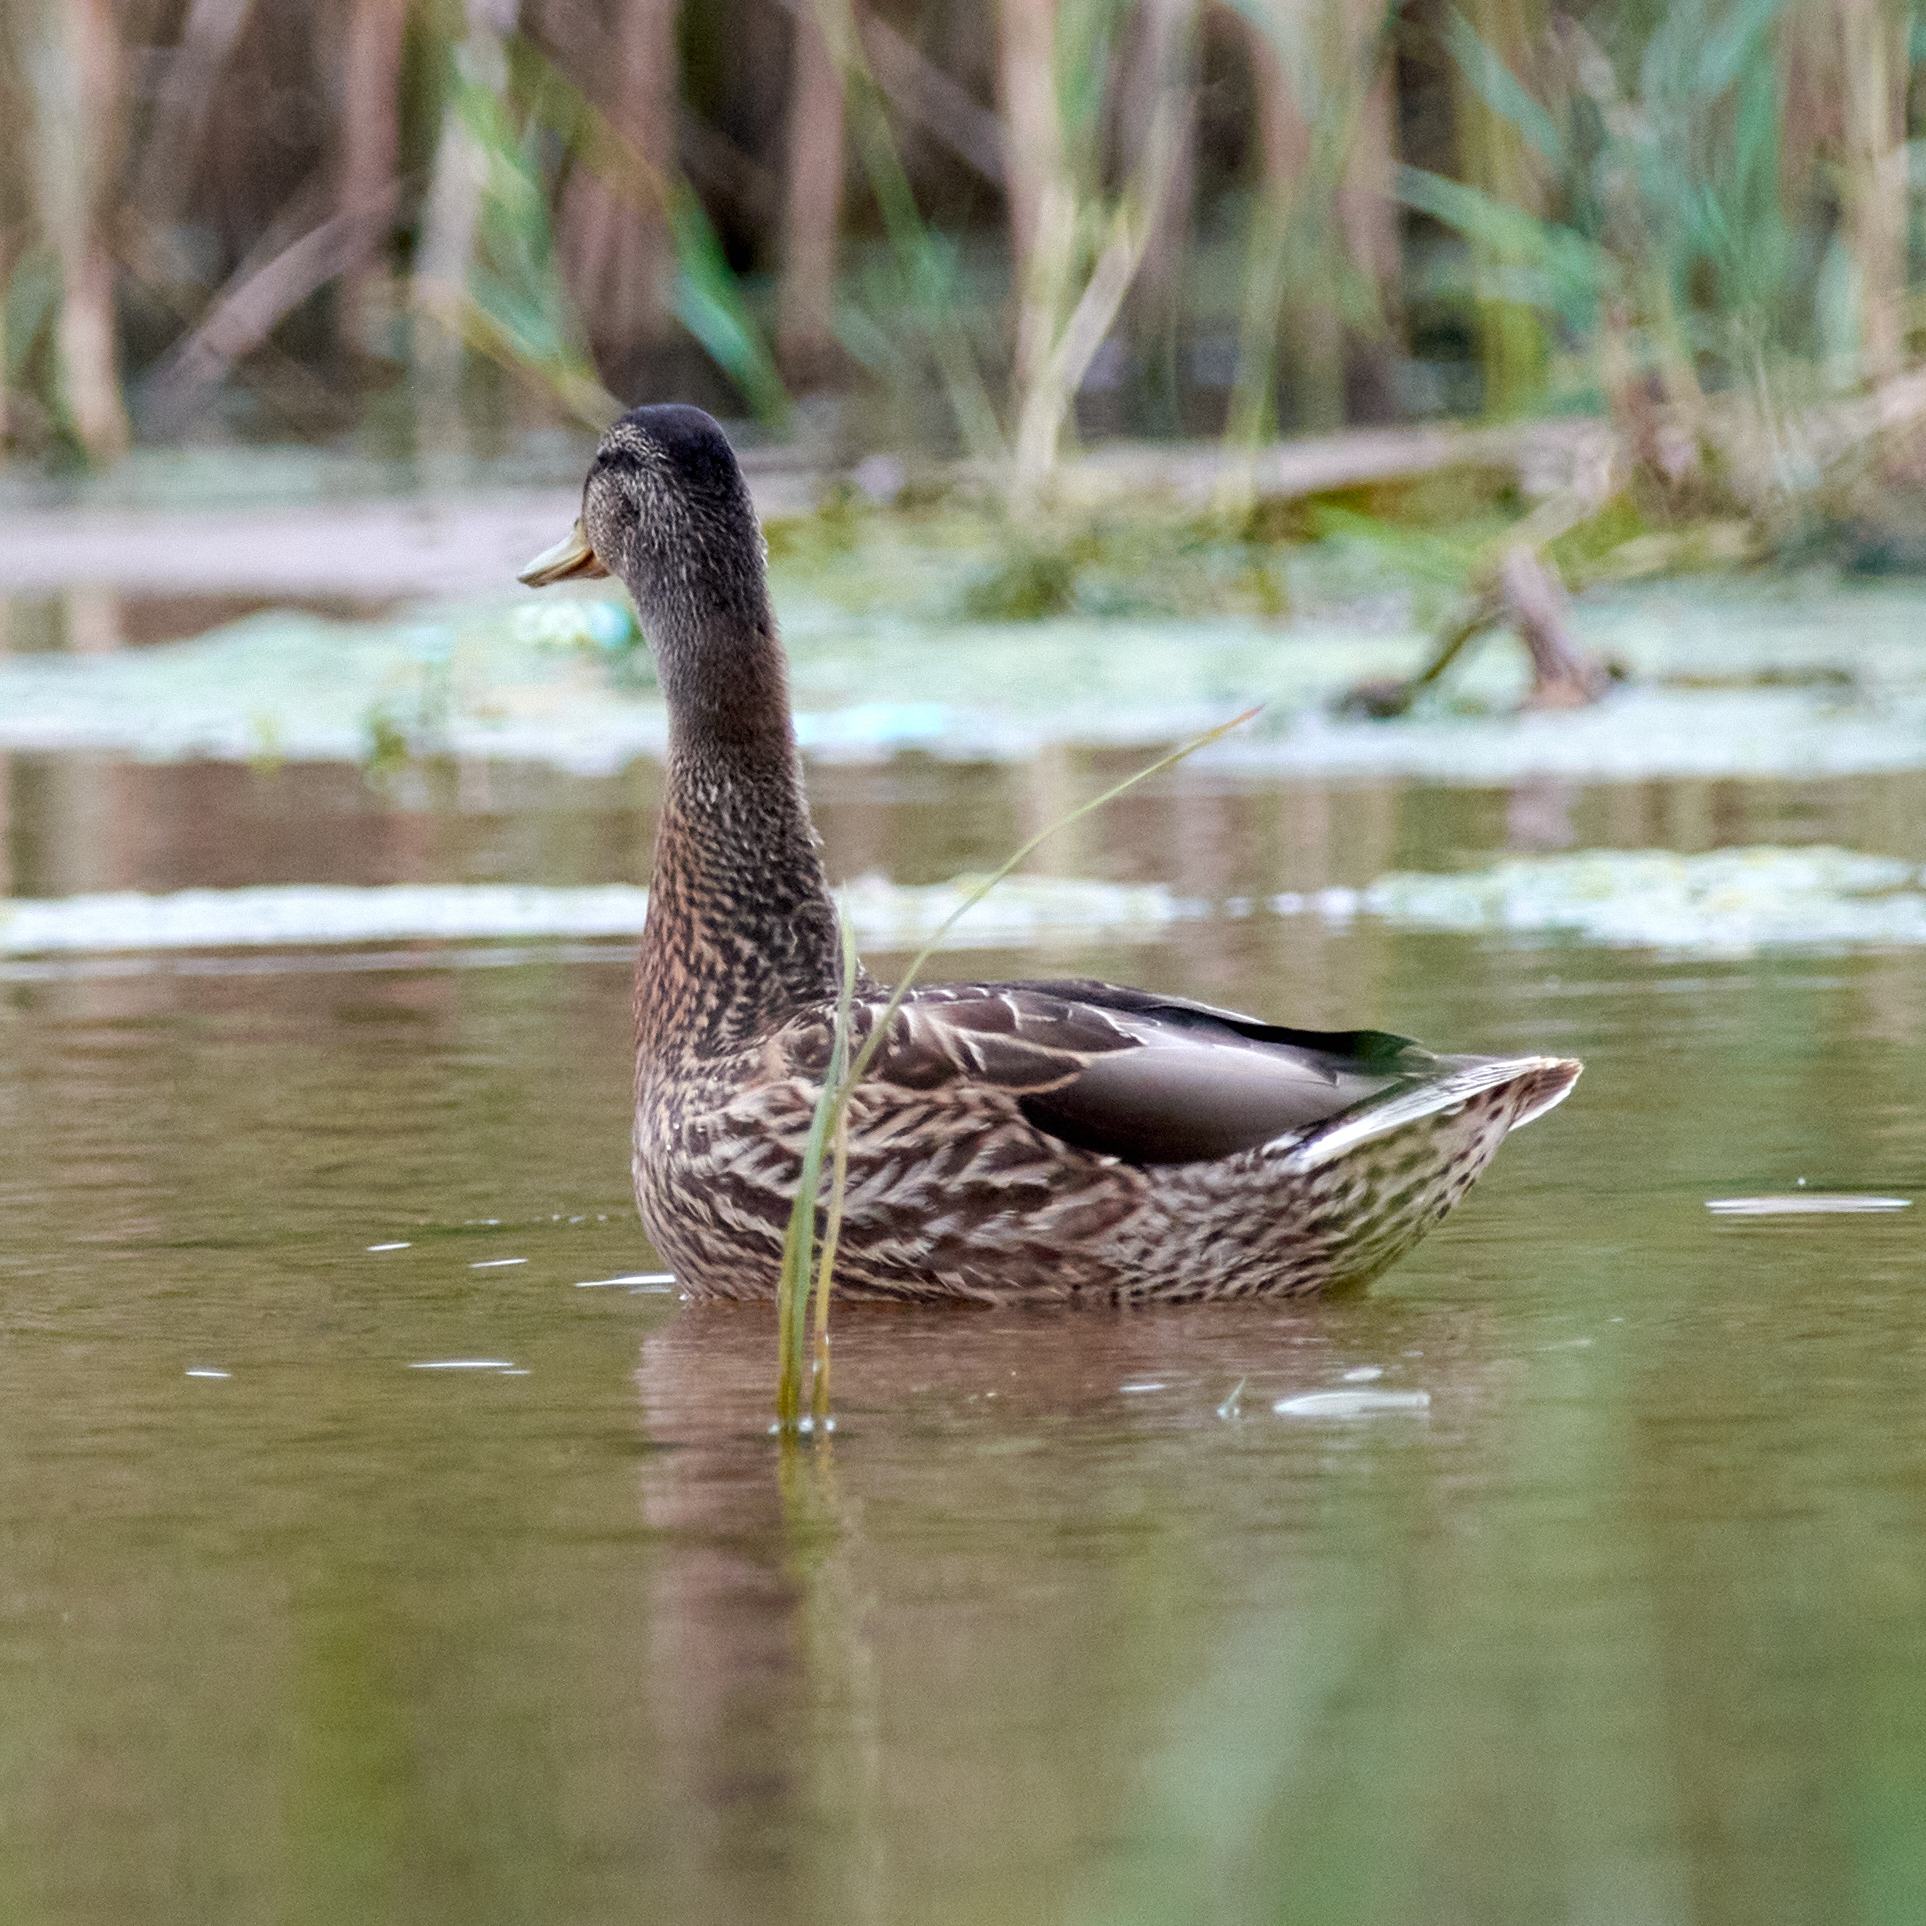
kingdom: Animalia
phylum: Chordata
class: Aves
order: Anseriformes
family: Anatidae
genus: Anas
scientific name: Anas platyrhynchos
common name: Mallard
